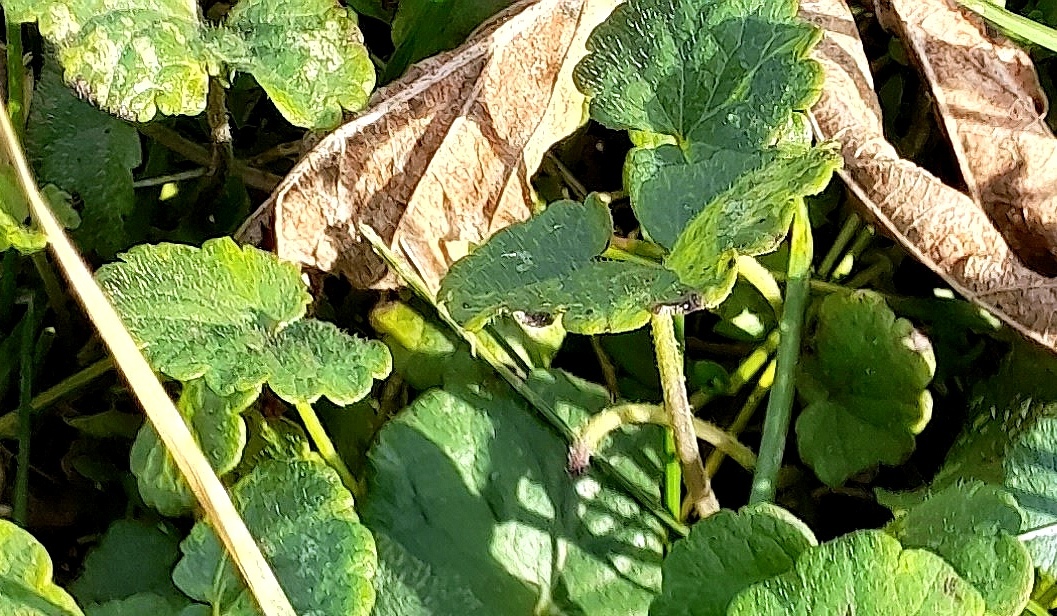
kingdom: Plantae
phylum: Tracheophyta
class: Magnoliopsida
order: Lamiales
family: Lamiaceae
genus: Glechoma
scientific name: Glechoma hederacea
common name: Ground ivy
